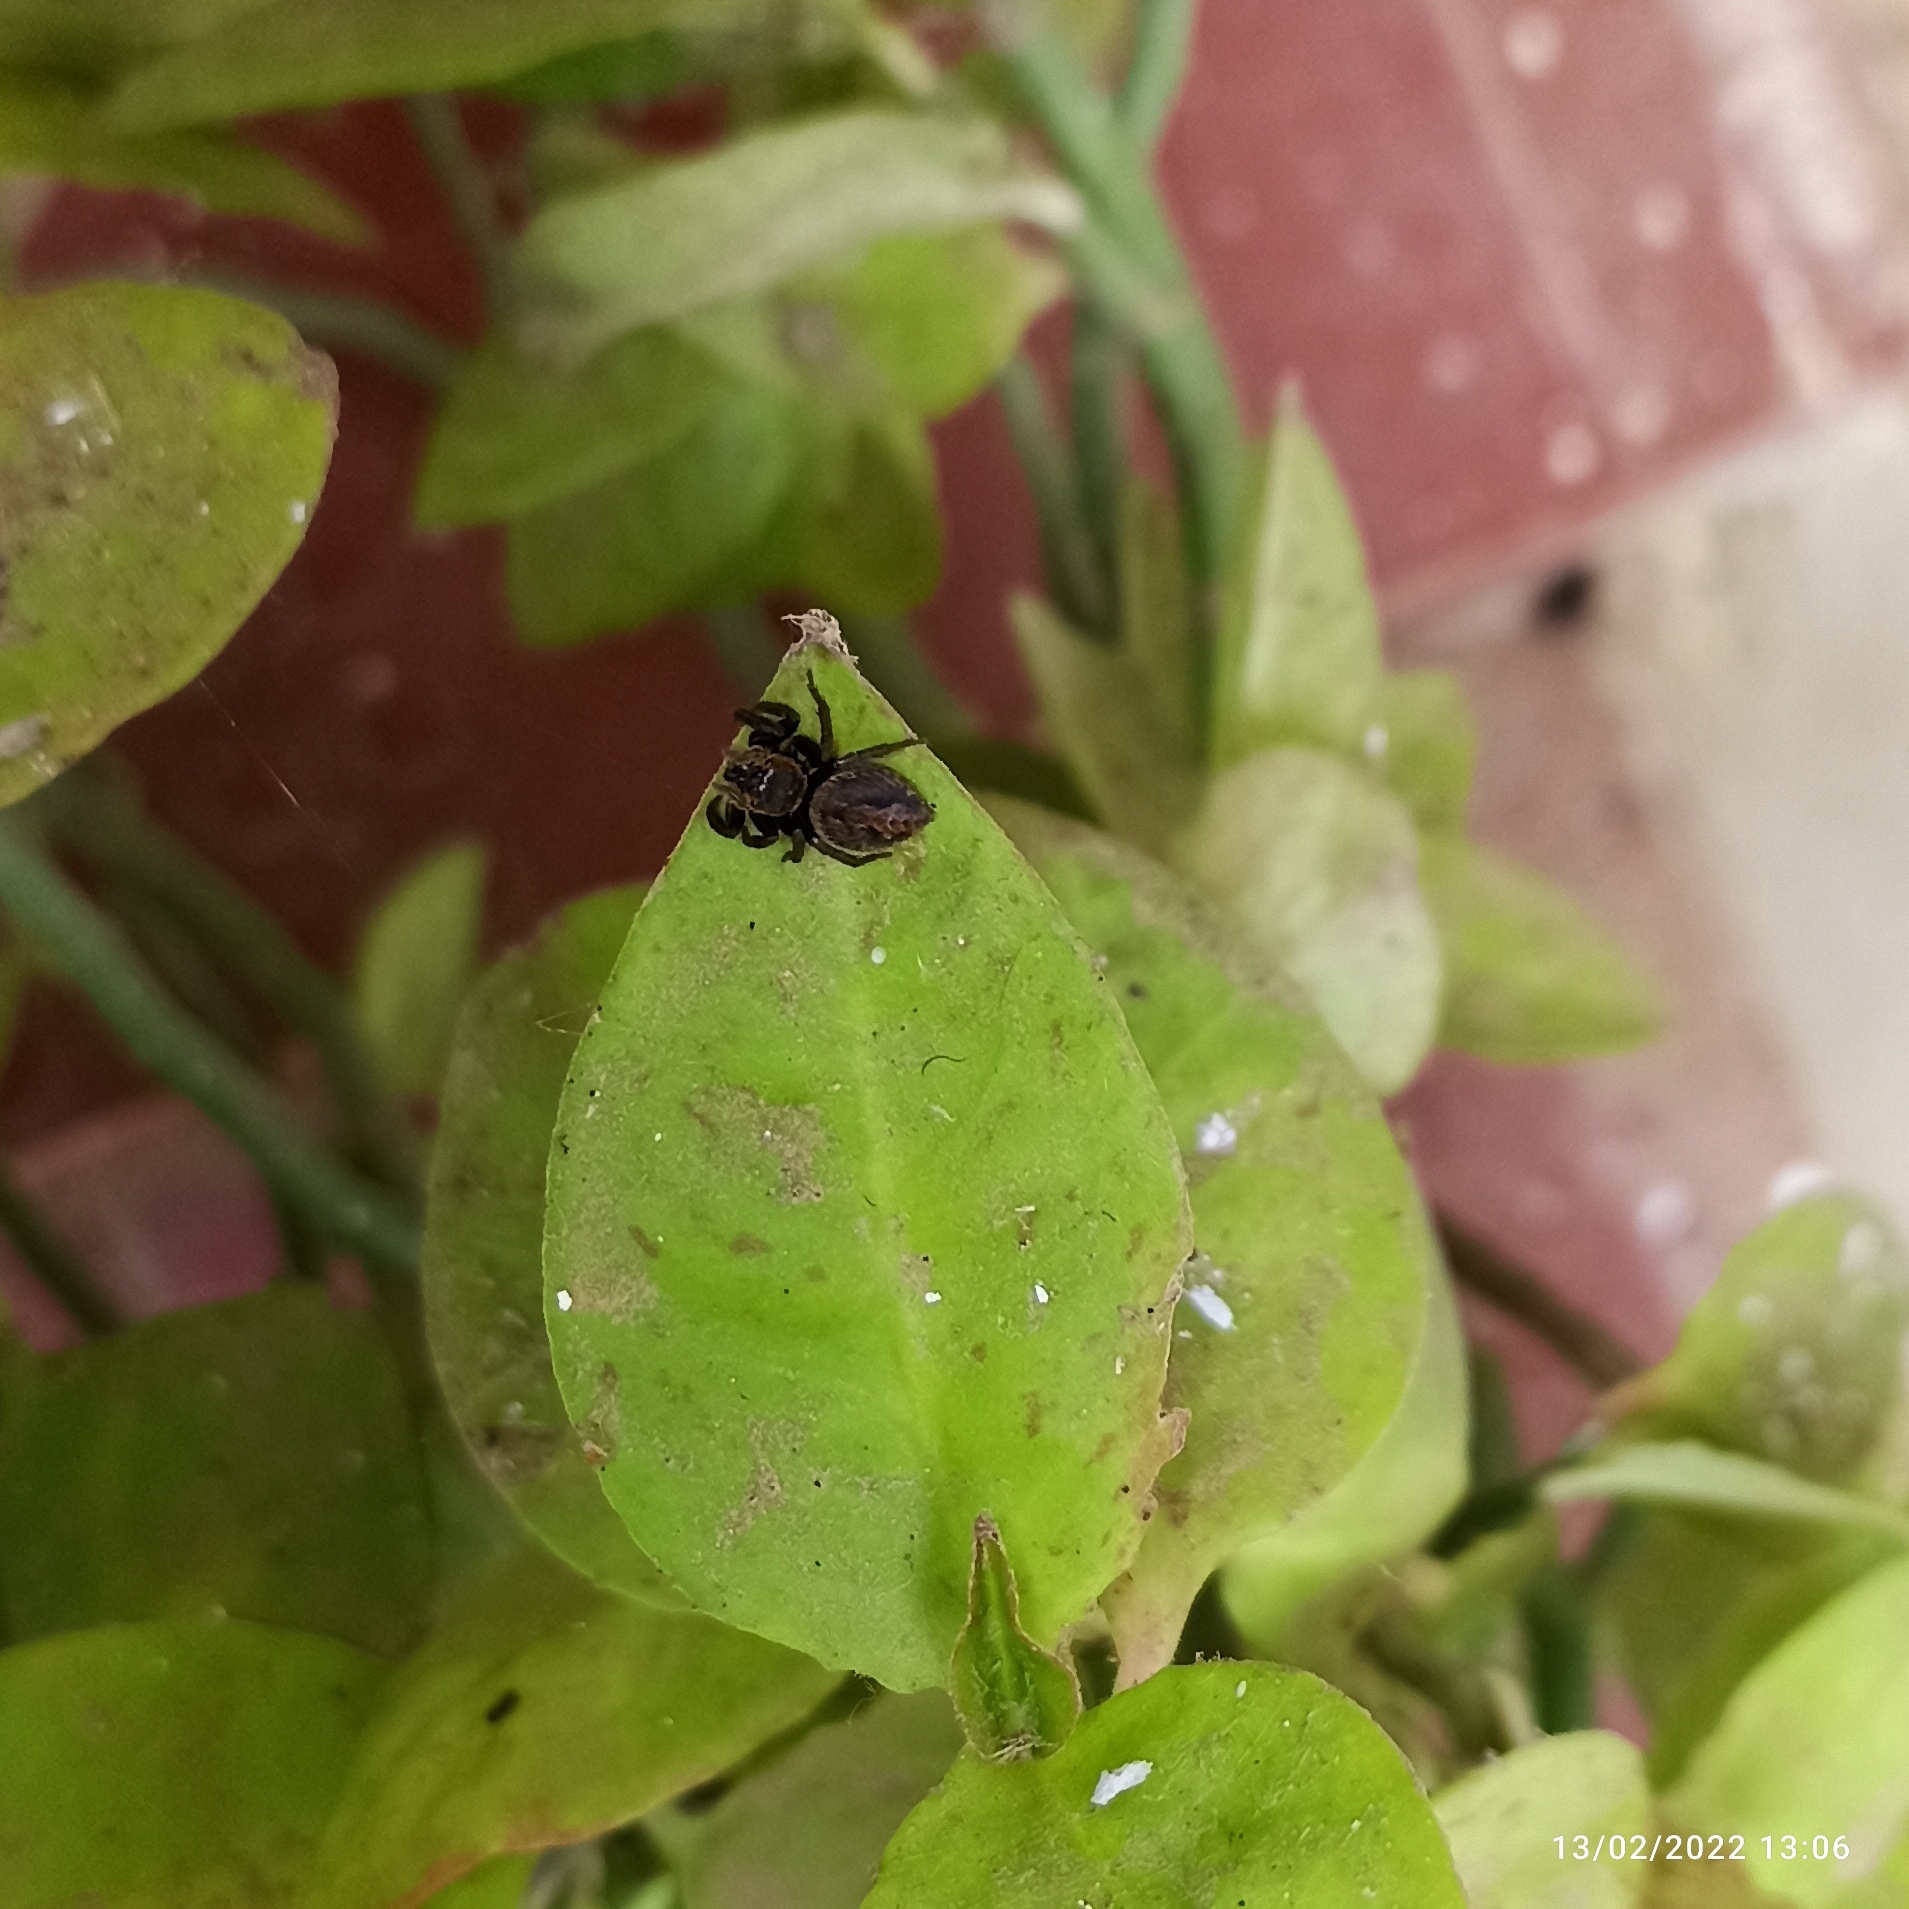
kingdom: Animalia
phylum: Arthropoda
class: Arachnida
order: Araneae
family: Salticidae
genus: Hasarius
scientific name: Hasarius adansoni
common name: Jumping spider
